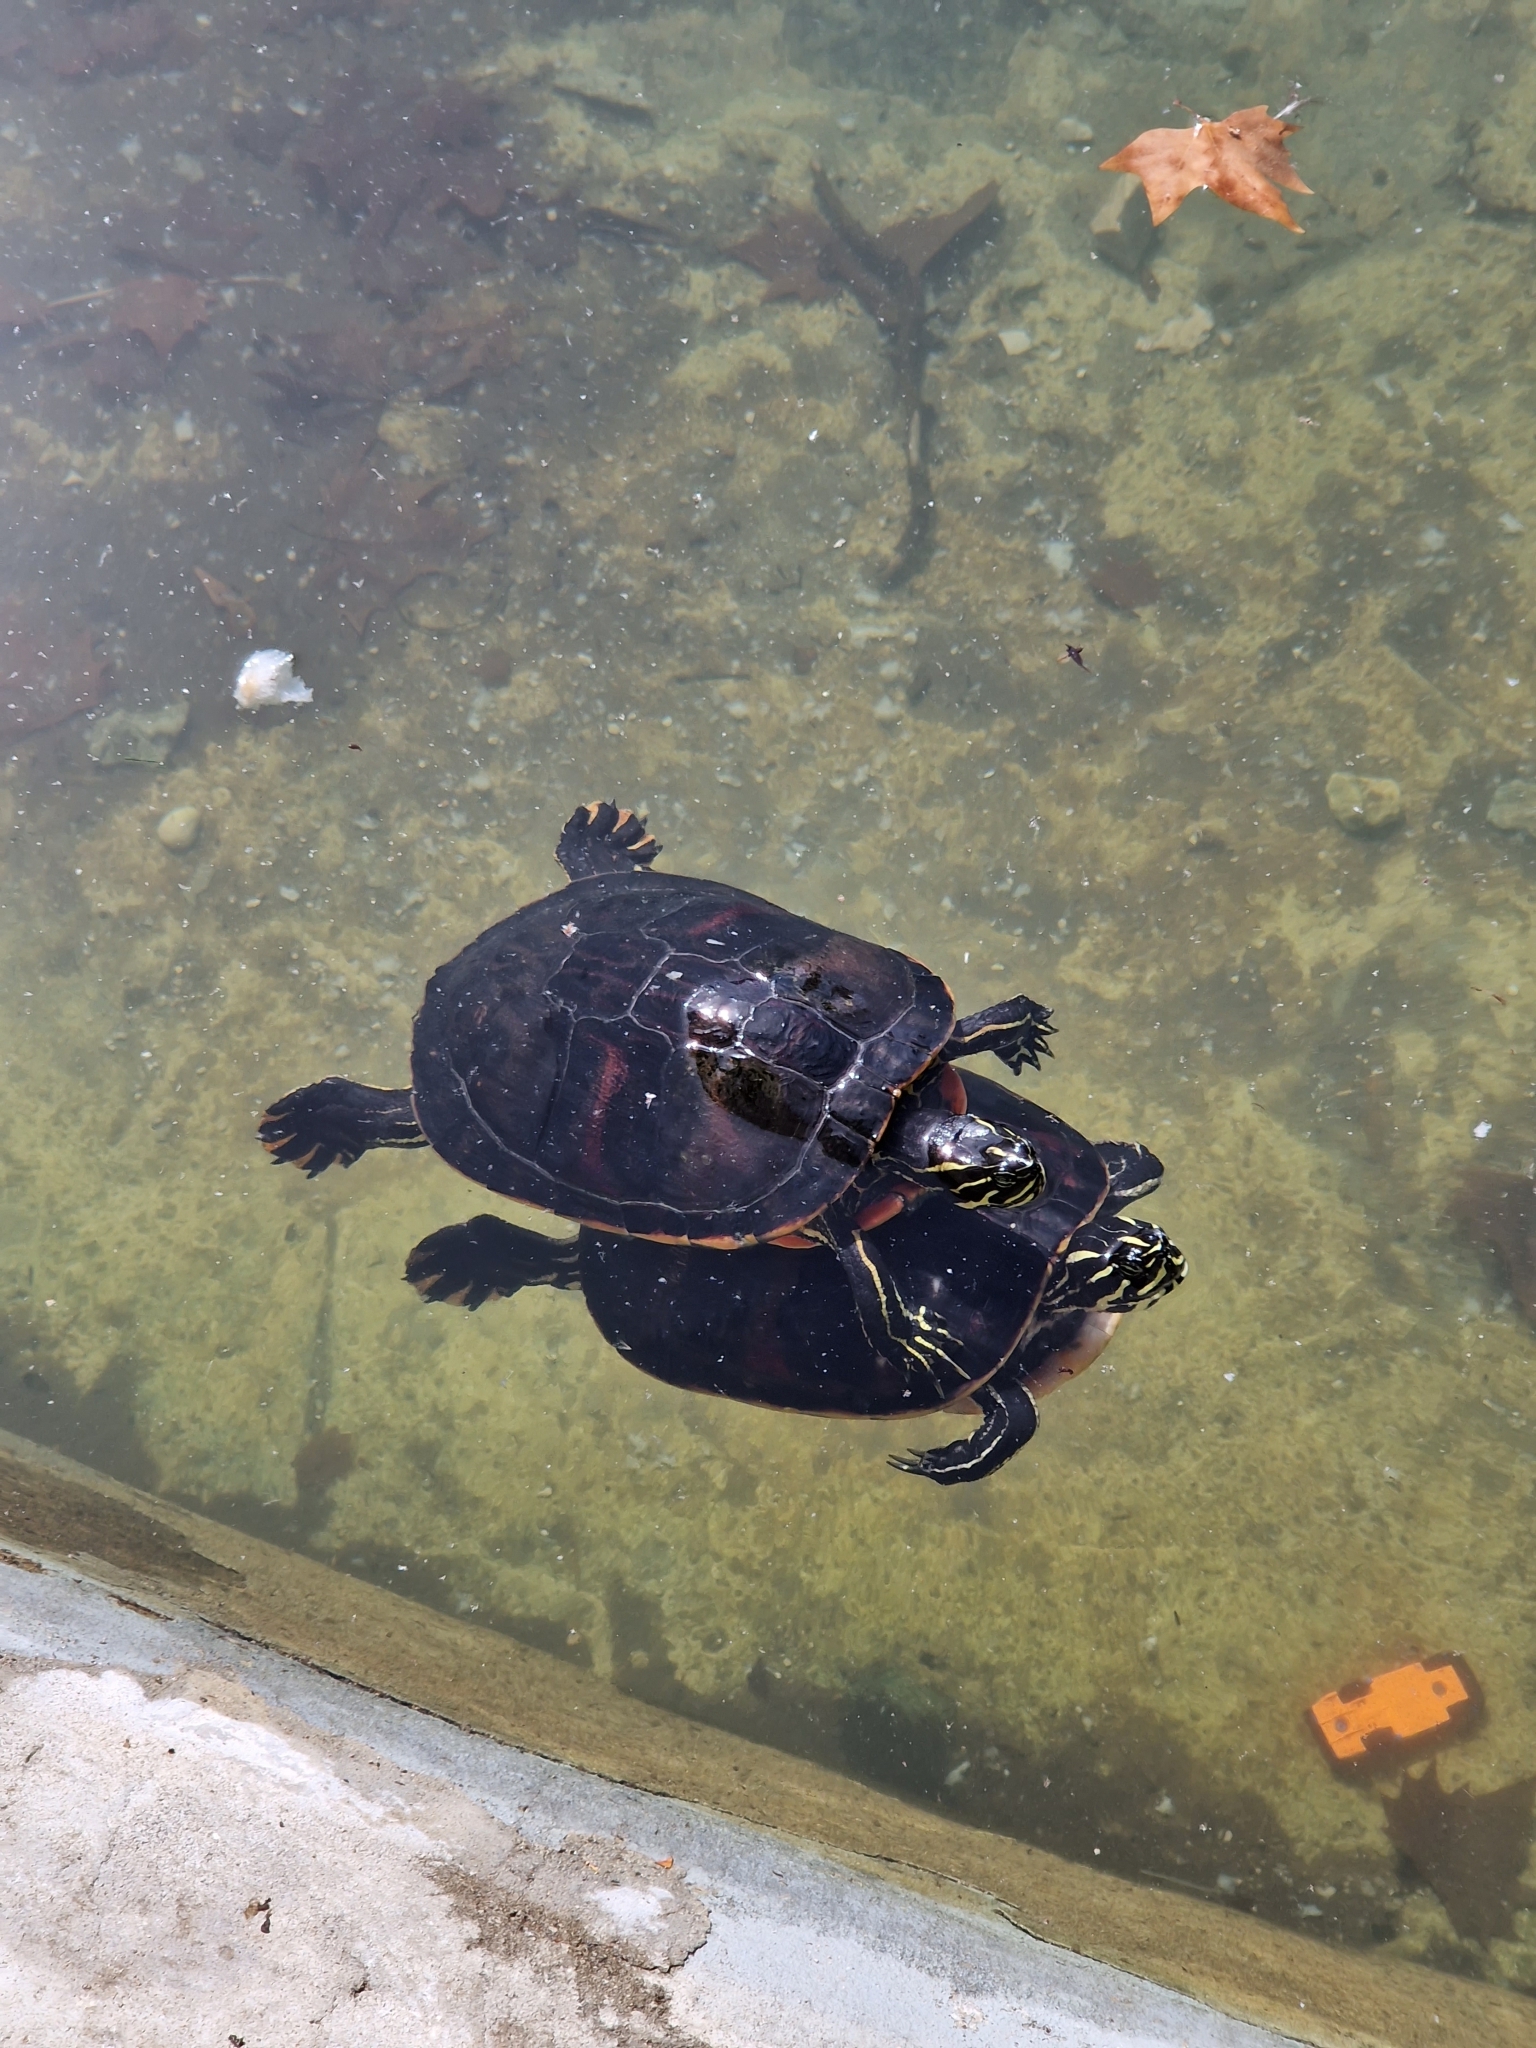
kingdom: Animalia
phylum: Chordata
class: Testudines
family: Emydidae
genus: Pseudemys
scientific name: Pseudemys nelsoni
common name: Florida red-bellied turtle
